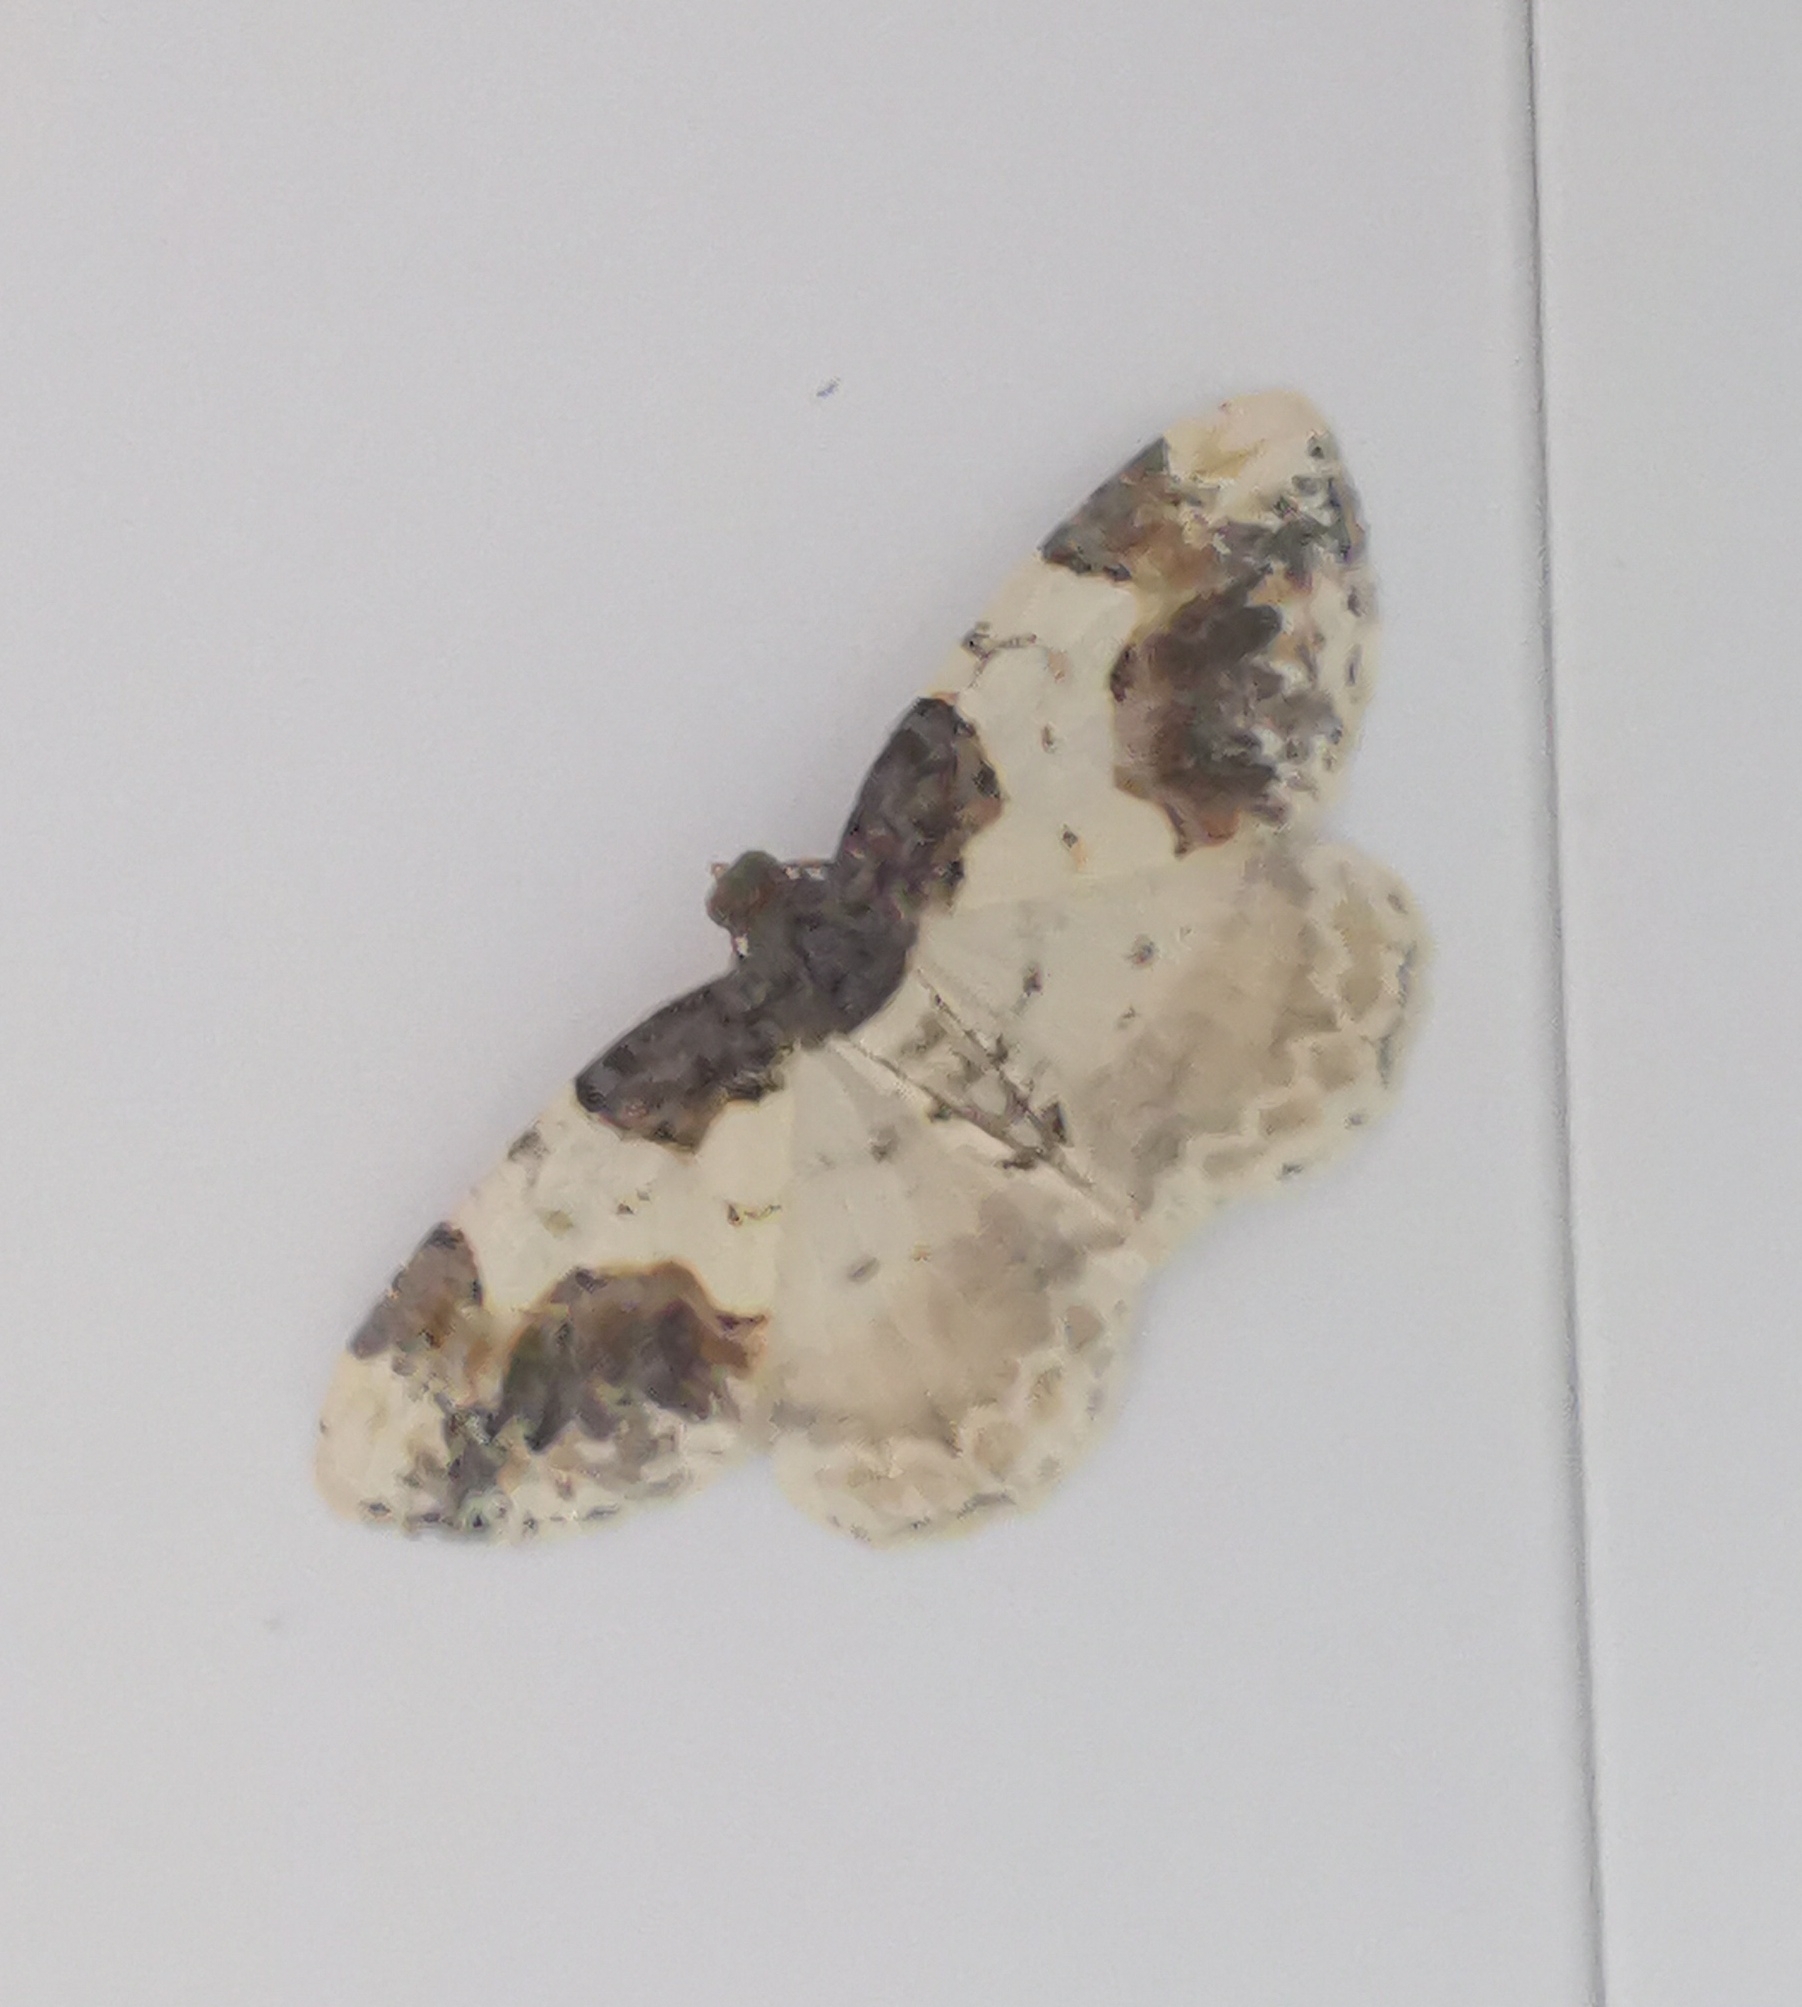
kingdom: Animalia
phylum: Arthropoda
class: Insecta
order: Lepidoptera
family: Geometridae
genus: Ligdia
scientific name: Ligdia adustata
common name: Scorched carpet
